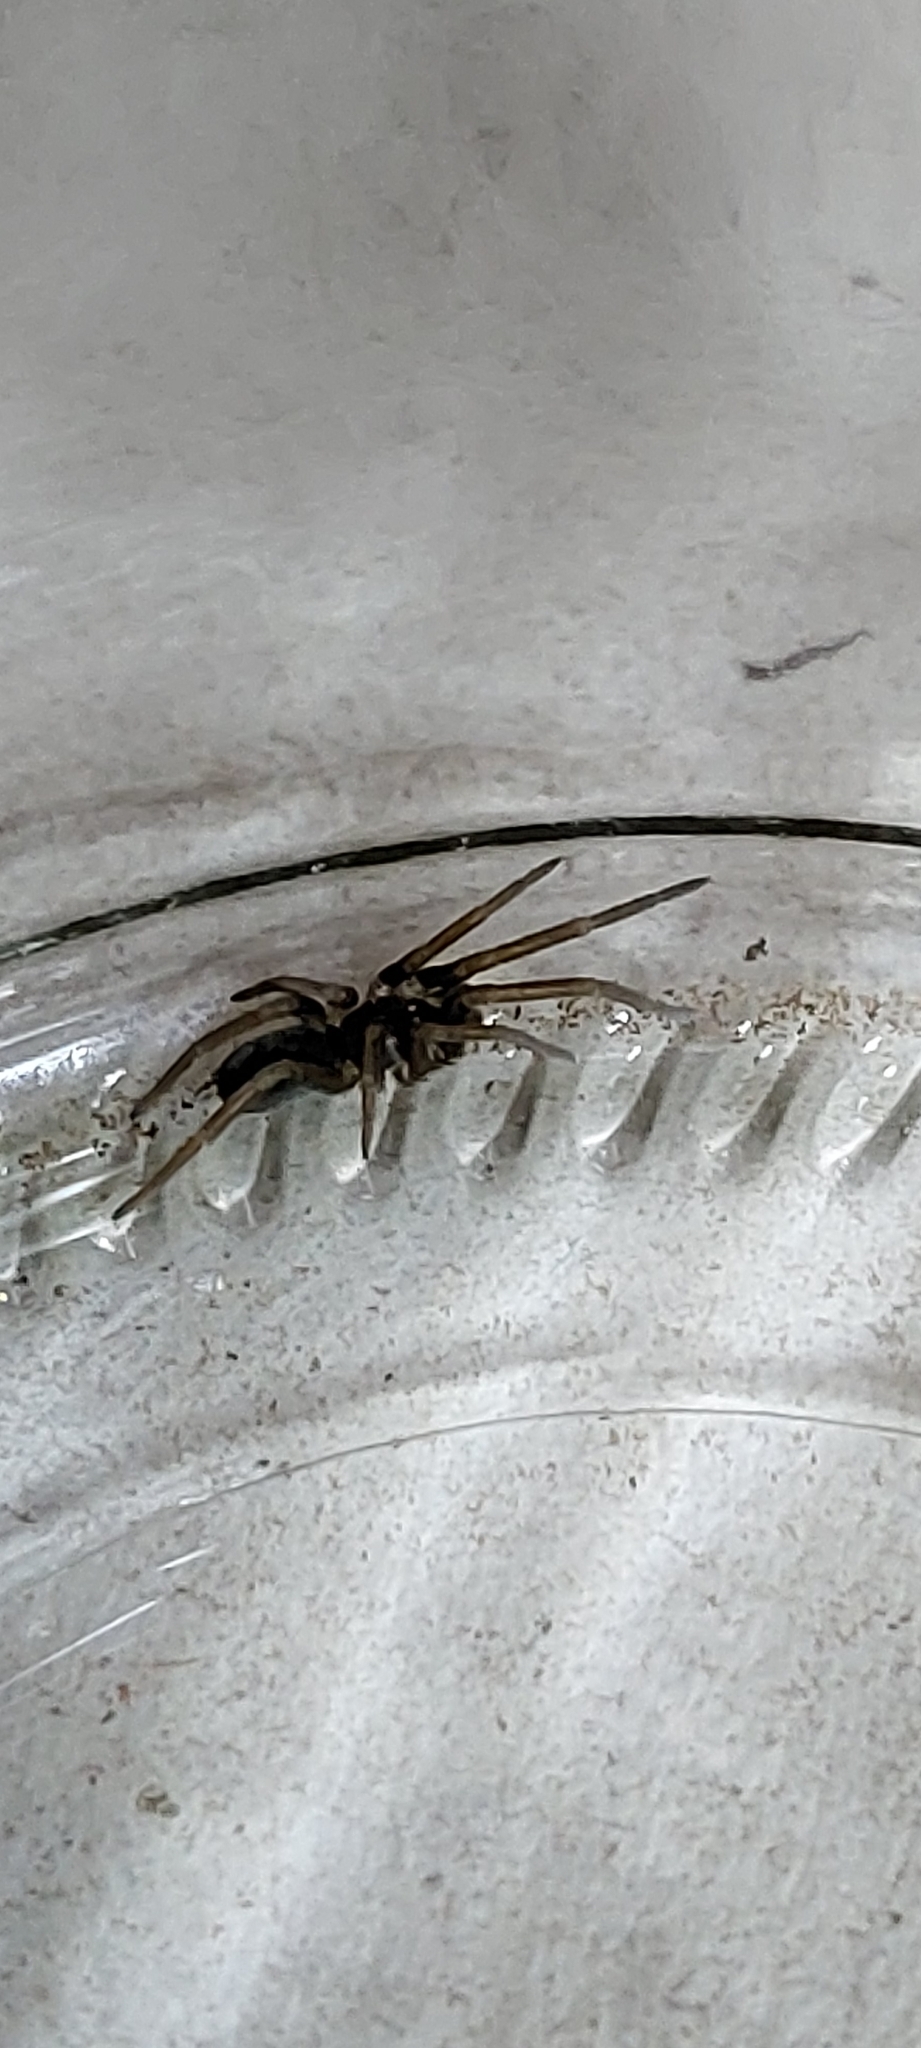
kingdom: Animalia
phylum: Arthropoda
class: Arachnida
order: Araneae
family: Filistatidae
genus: Kukulcania
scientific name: Kukulcania hibernalis
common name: Crevice weaver
